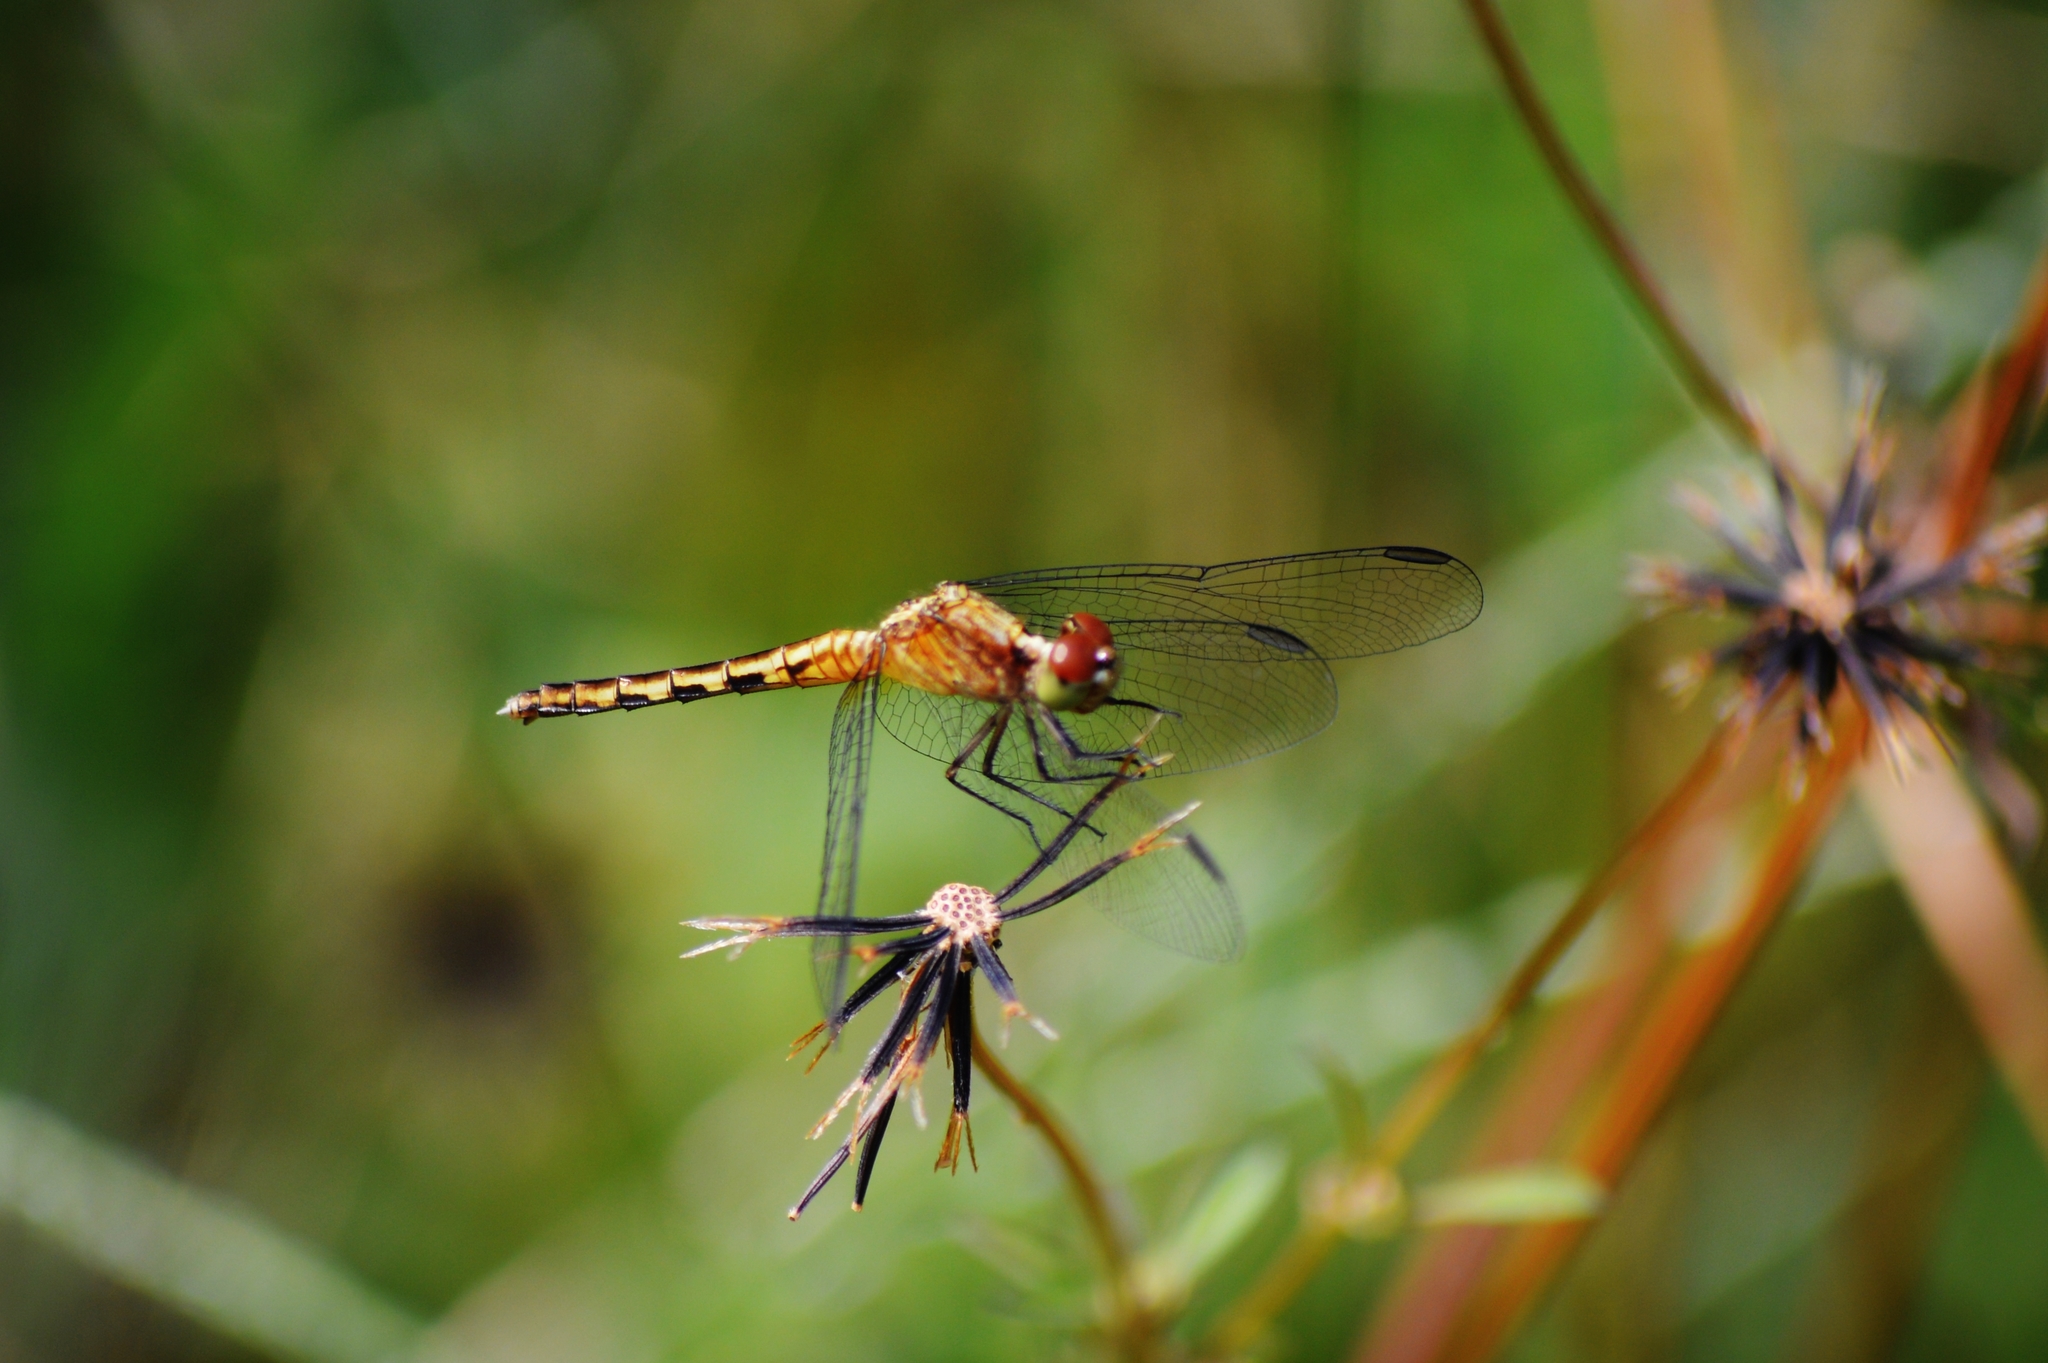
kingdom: Animalia
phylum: Arthropoda
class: Insecta
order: Odonata
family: Libellulidae
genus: Erythrodiplax
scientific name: Erythrodiplax ochracea
